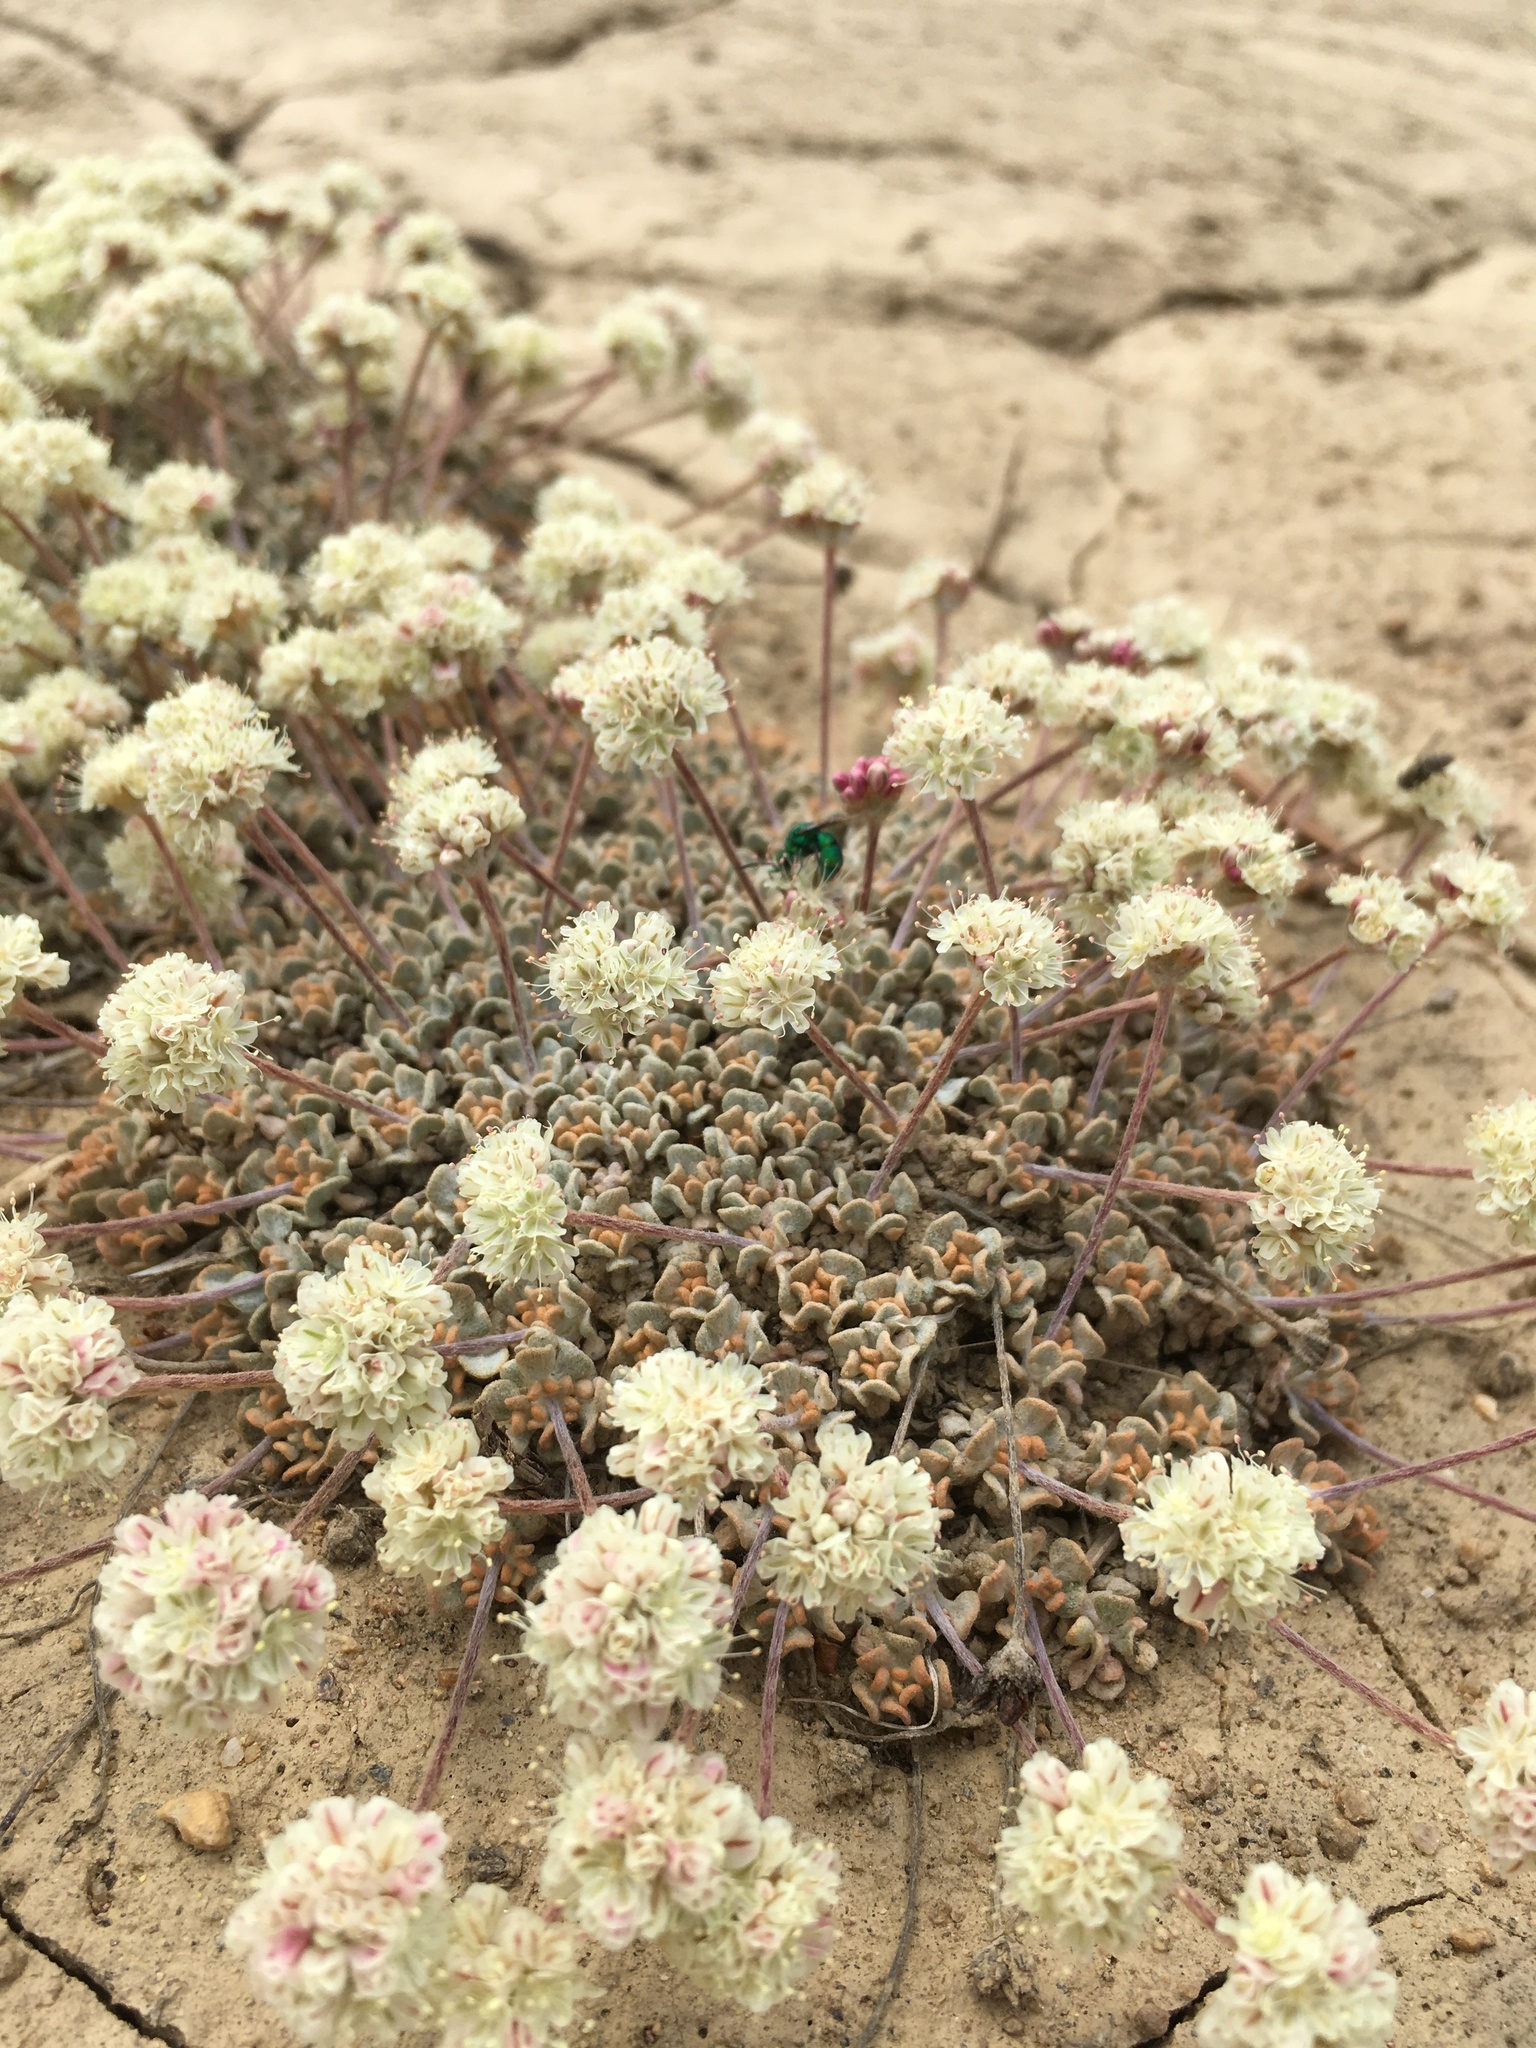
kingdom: Plantae
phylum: Tracheophyta
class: Magnoliopsida
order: Caryophyllales
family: Polygonaceae
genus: Eriogonum
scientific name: Eriogonum ovalifolium
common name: Cushion buckwheat
